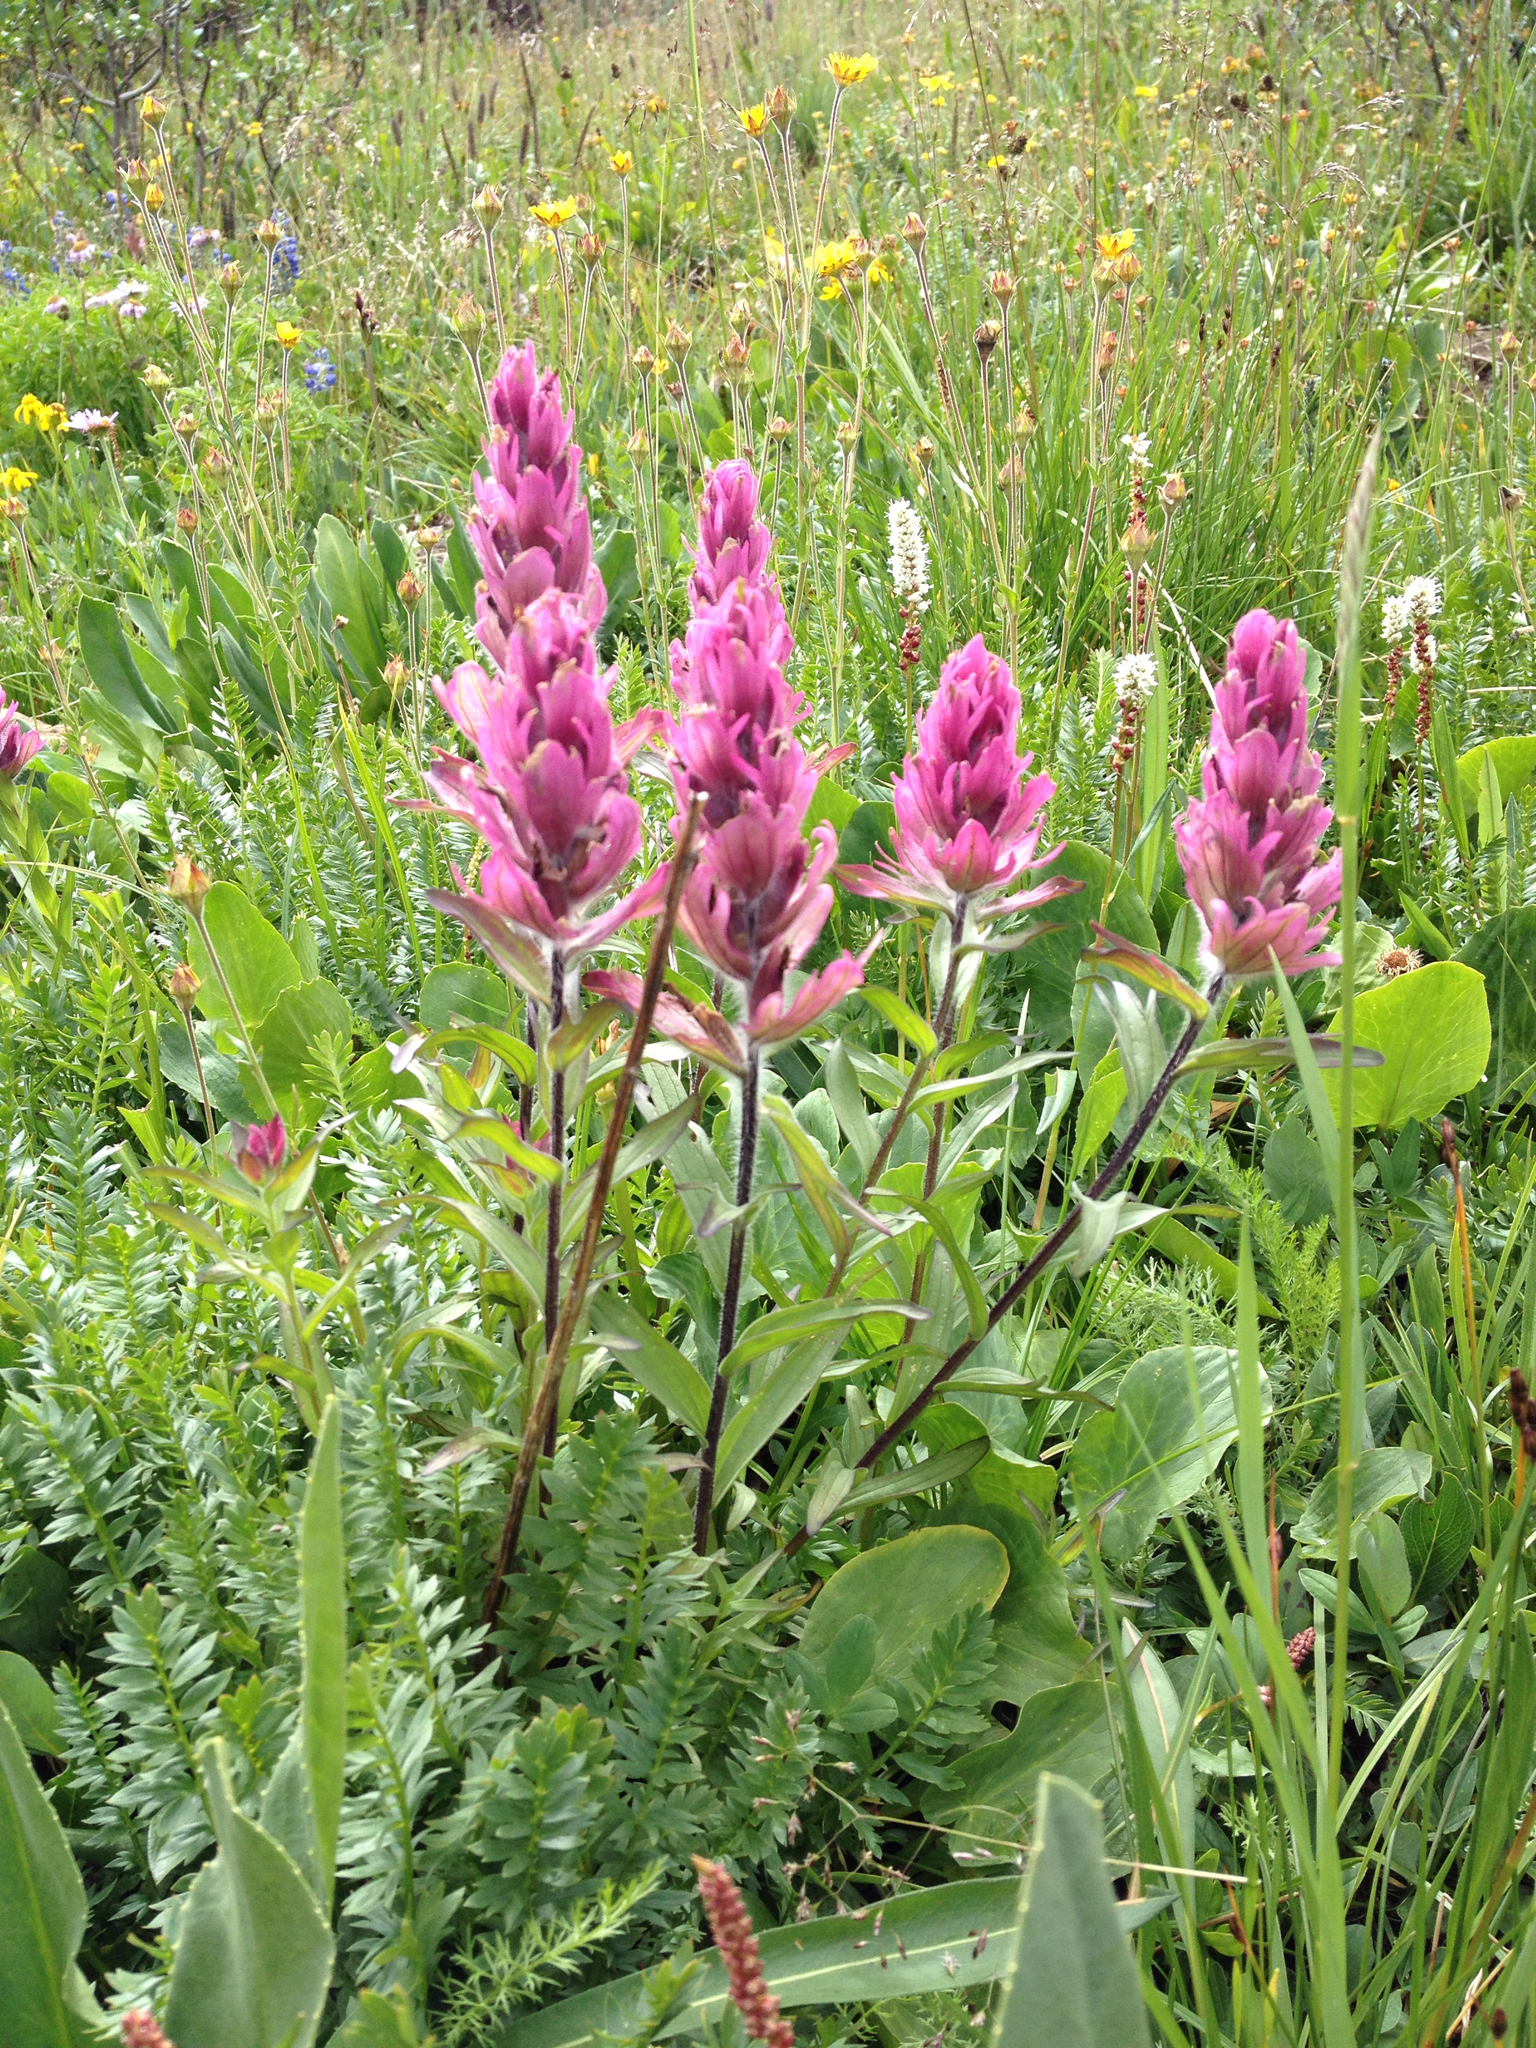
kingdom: Plantae
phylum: Tracheophyta
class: Magnoliopsida
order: Lamiales
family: Orobanchaceae
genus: Castilleja
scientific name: Castilleja rhexifolia
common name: Rocky mountain paintbrush
